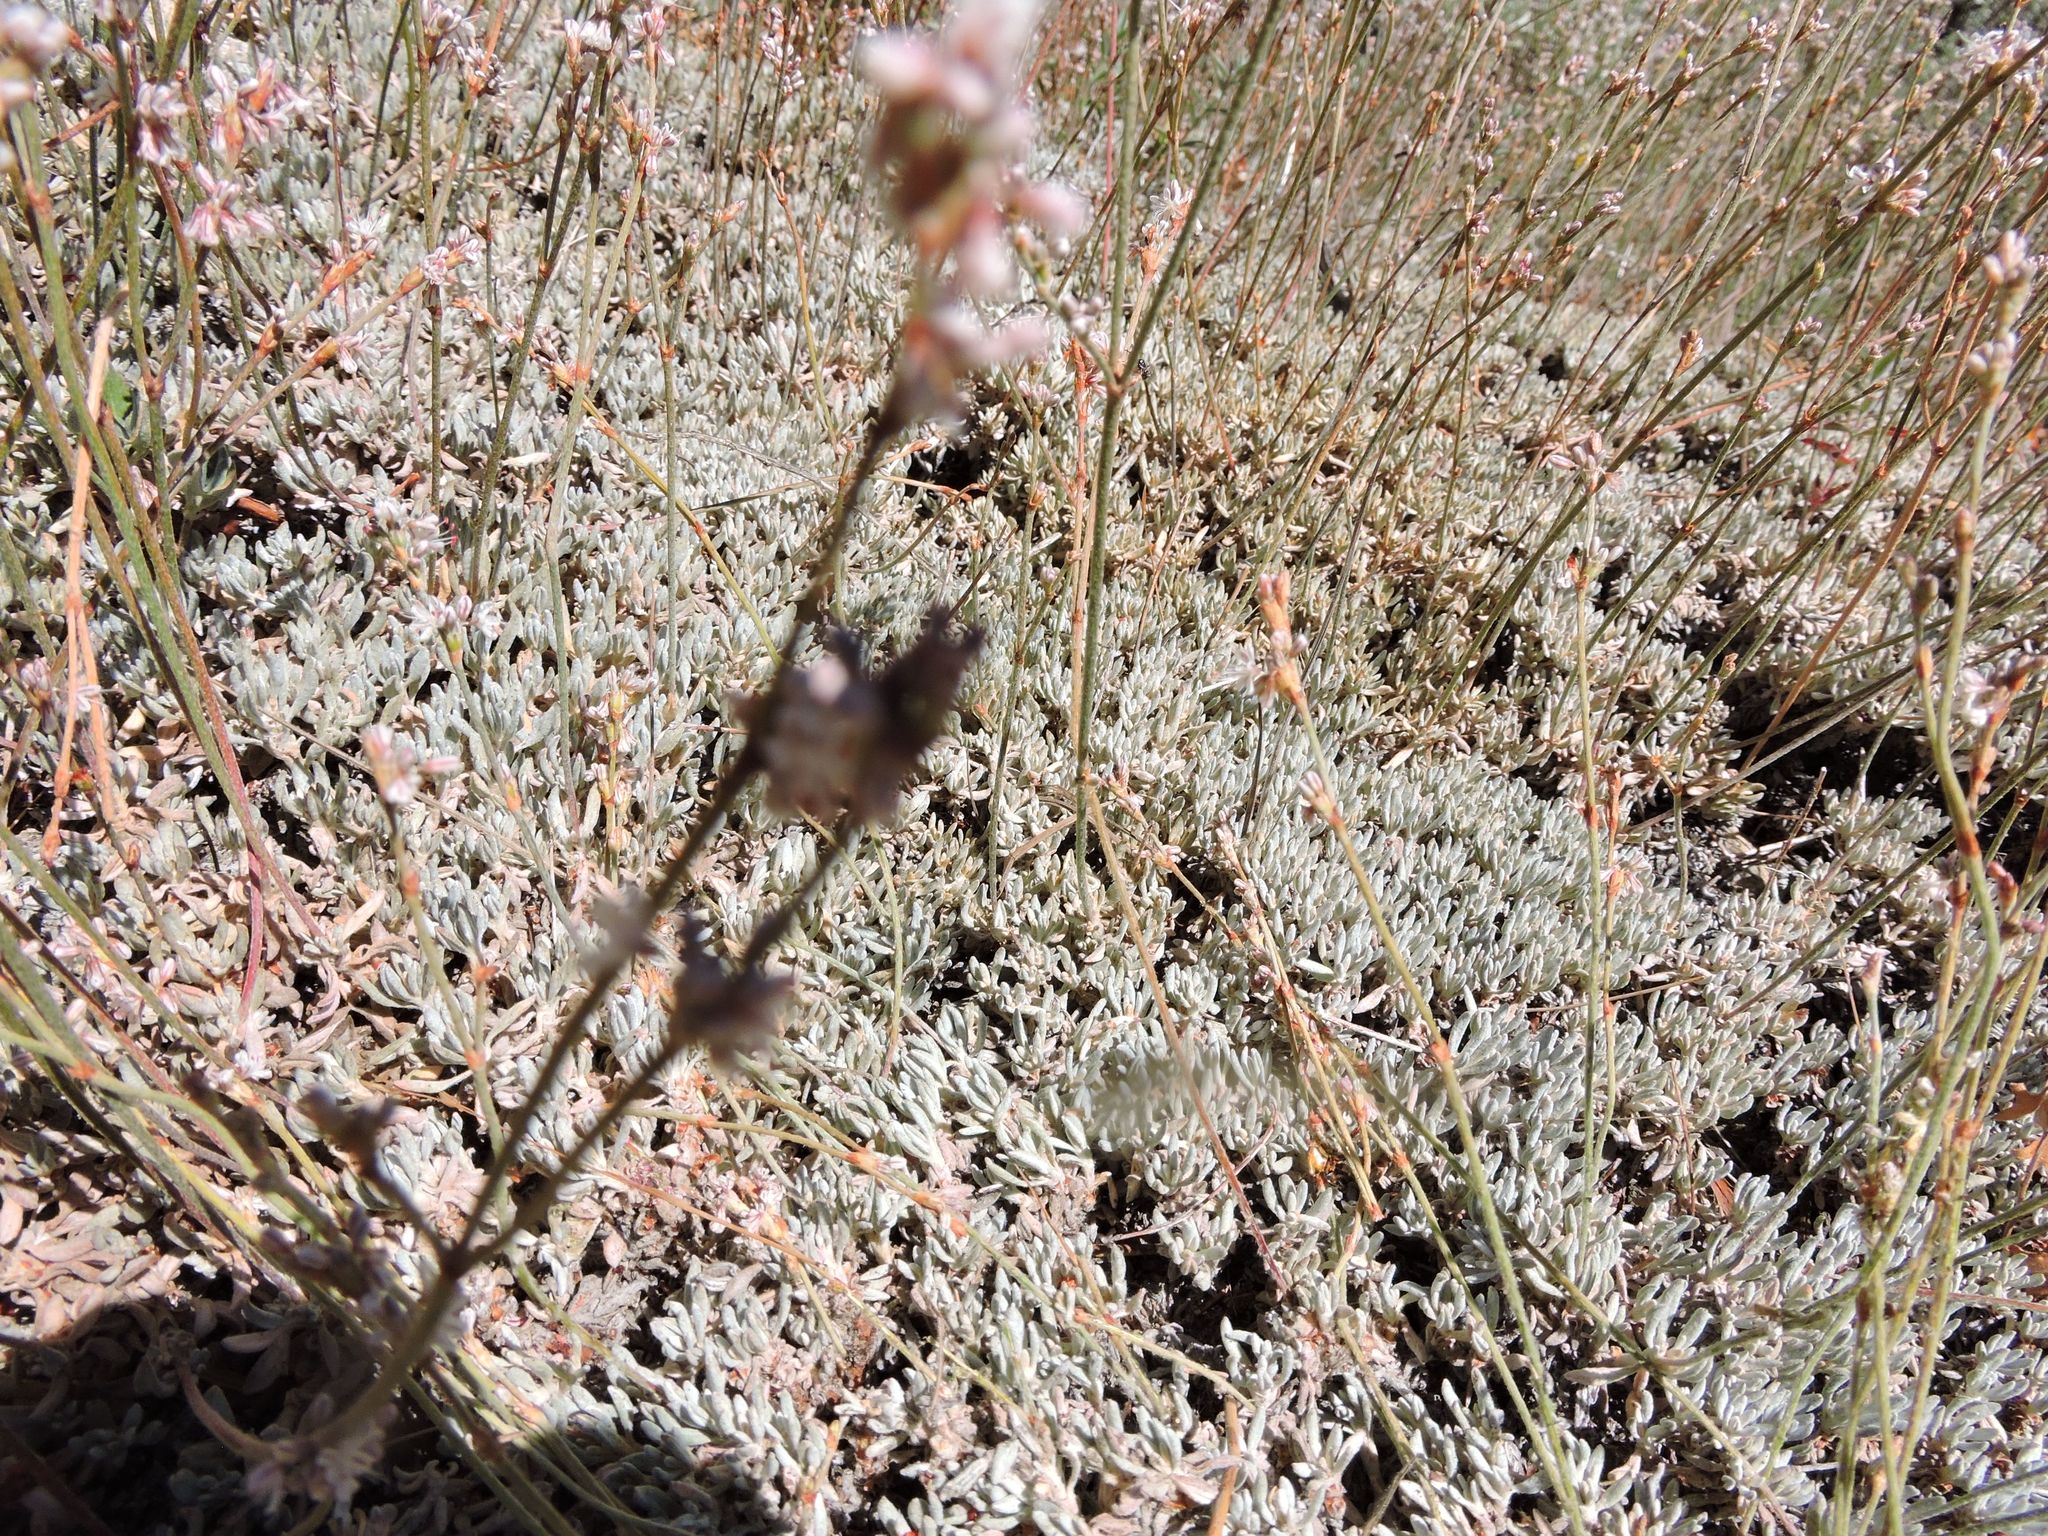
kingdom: Plantae
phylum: Tracheophyta
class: Magnoliopsida
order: Caryophyllales
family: Polygonaceae
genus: Eriogonum
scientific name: Eriogonum wrightii
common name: Bastard-sage
